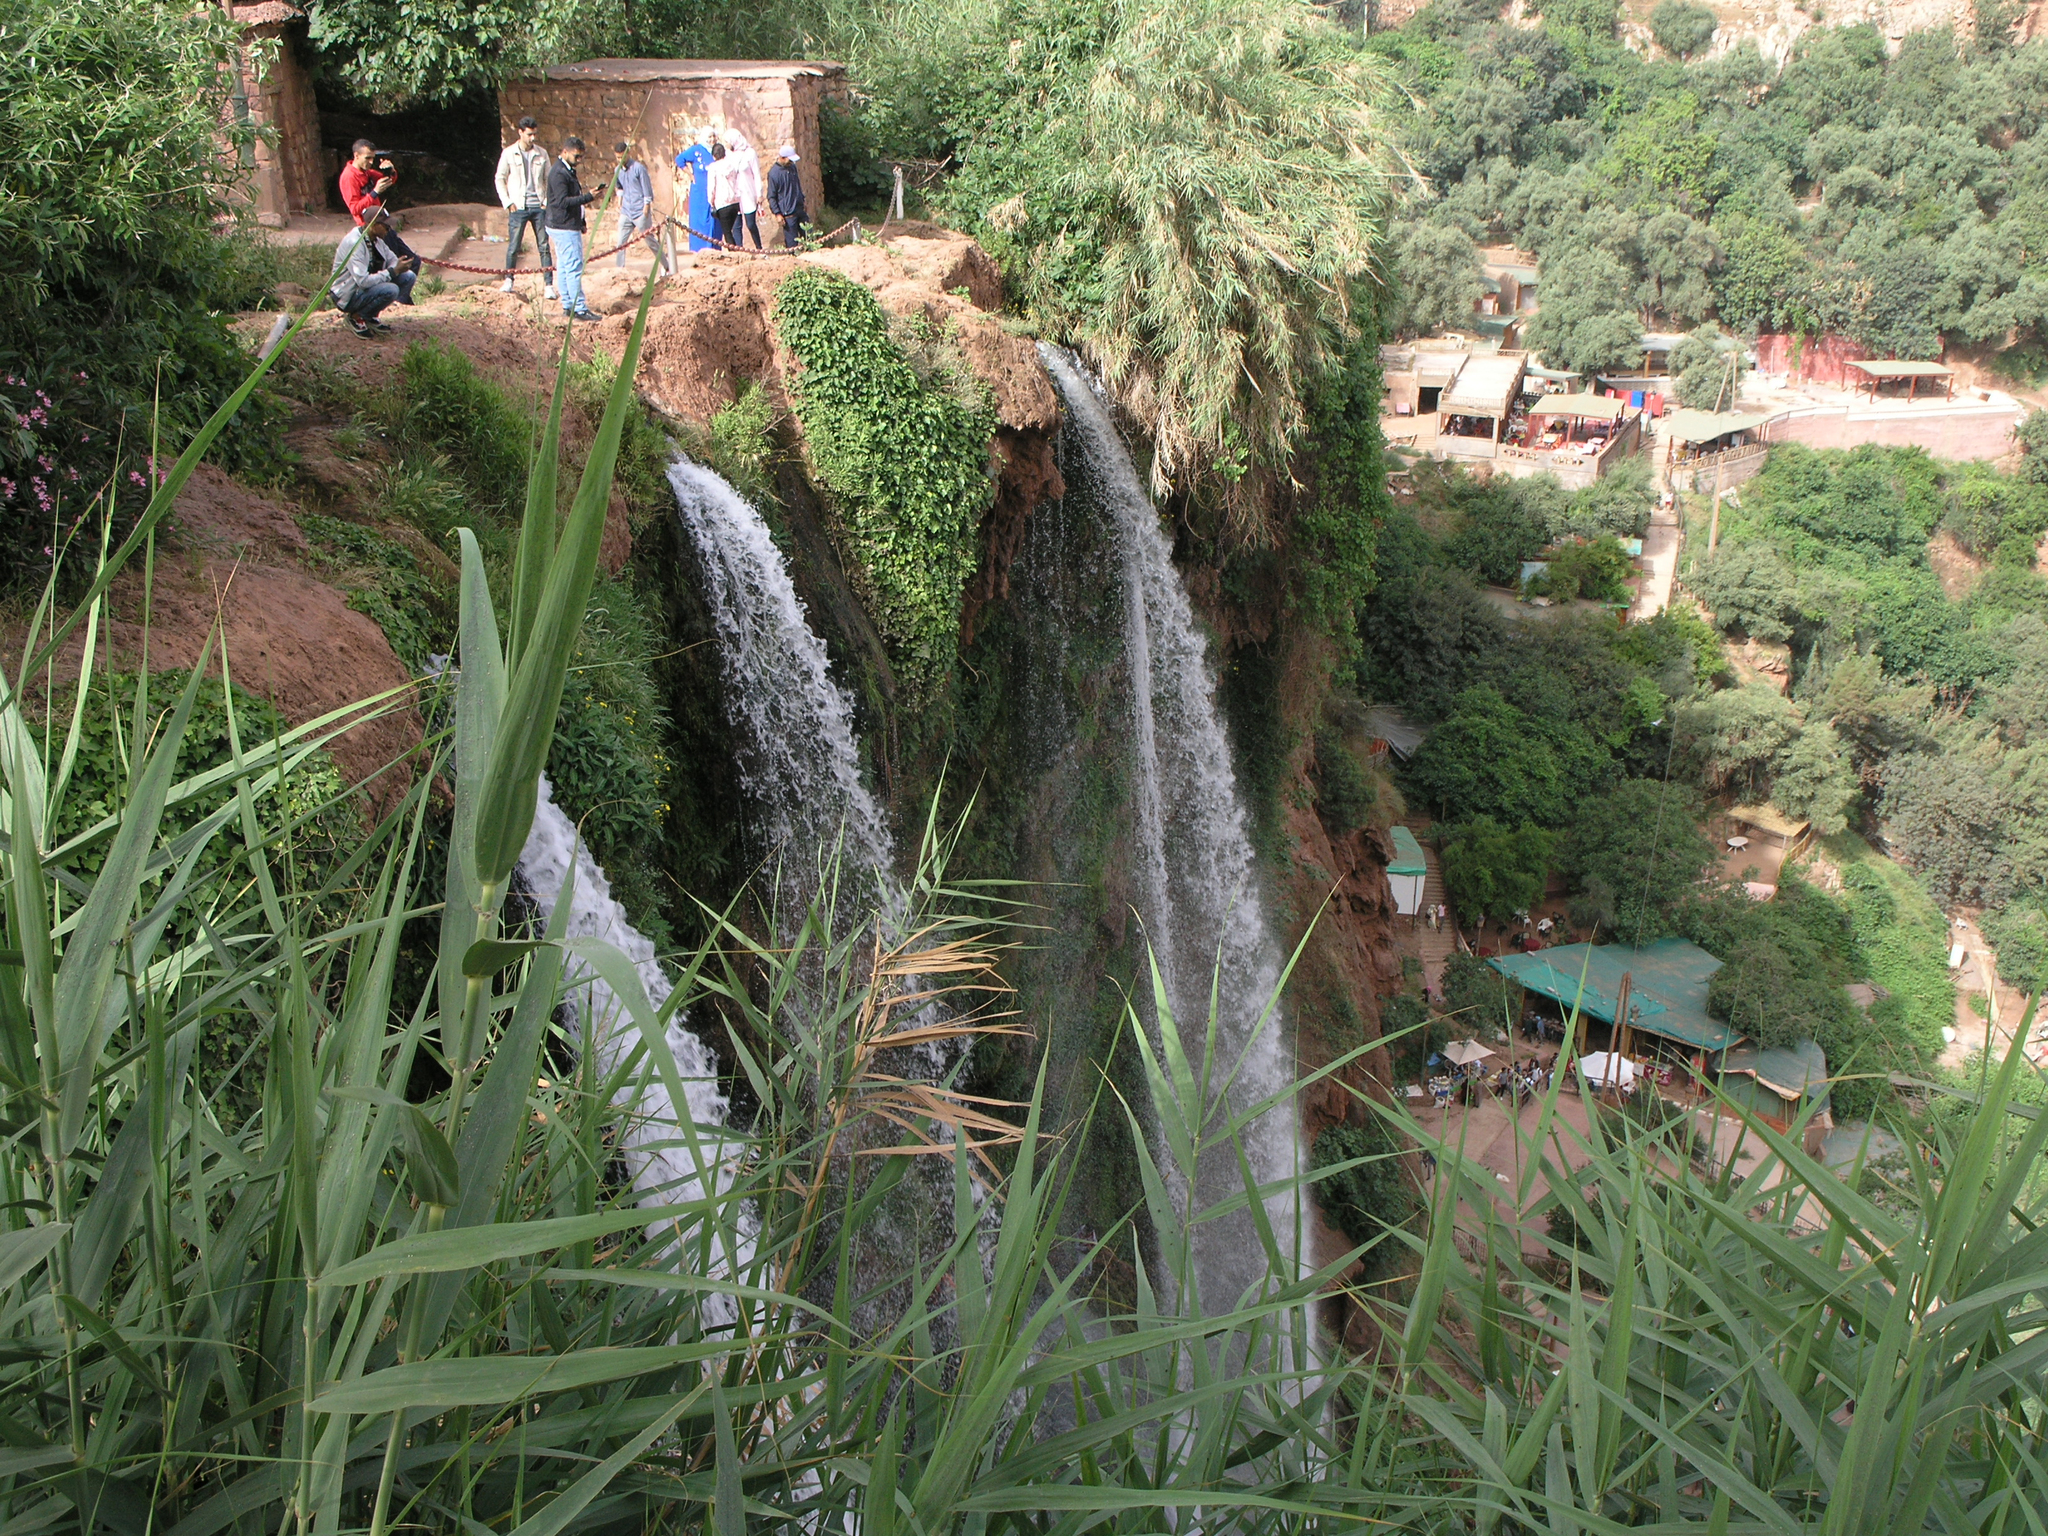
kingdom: Plantae
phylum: Tracheophyta
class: Liliopsida
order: Poales
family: Poaceae
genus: Phragmites
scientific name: Phragmites australis
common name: Common reed
